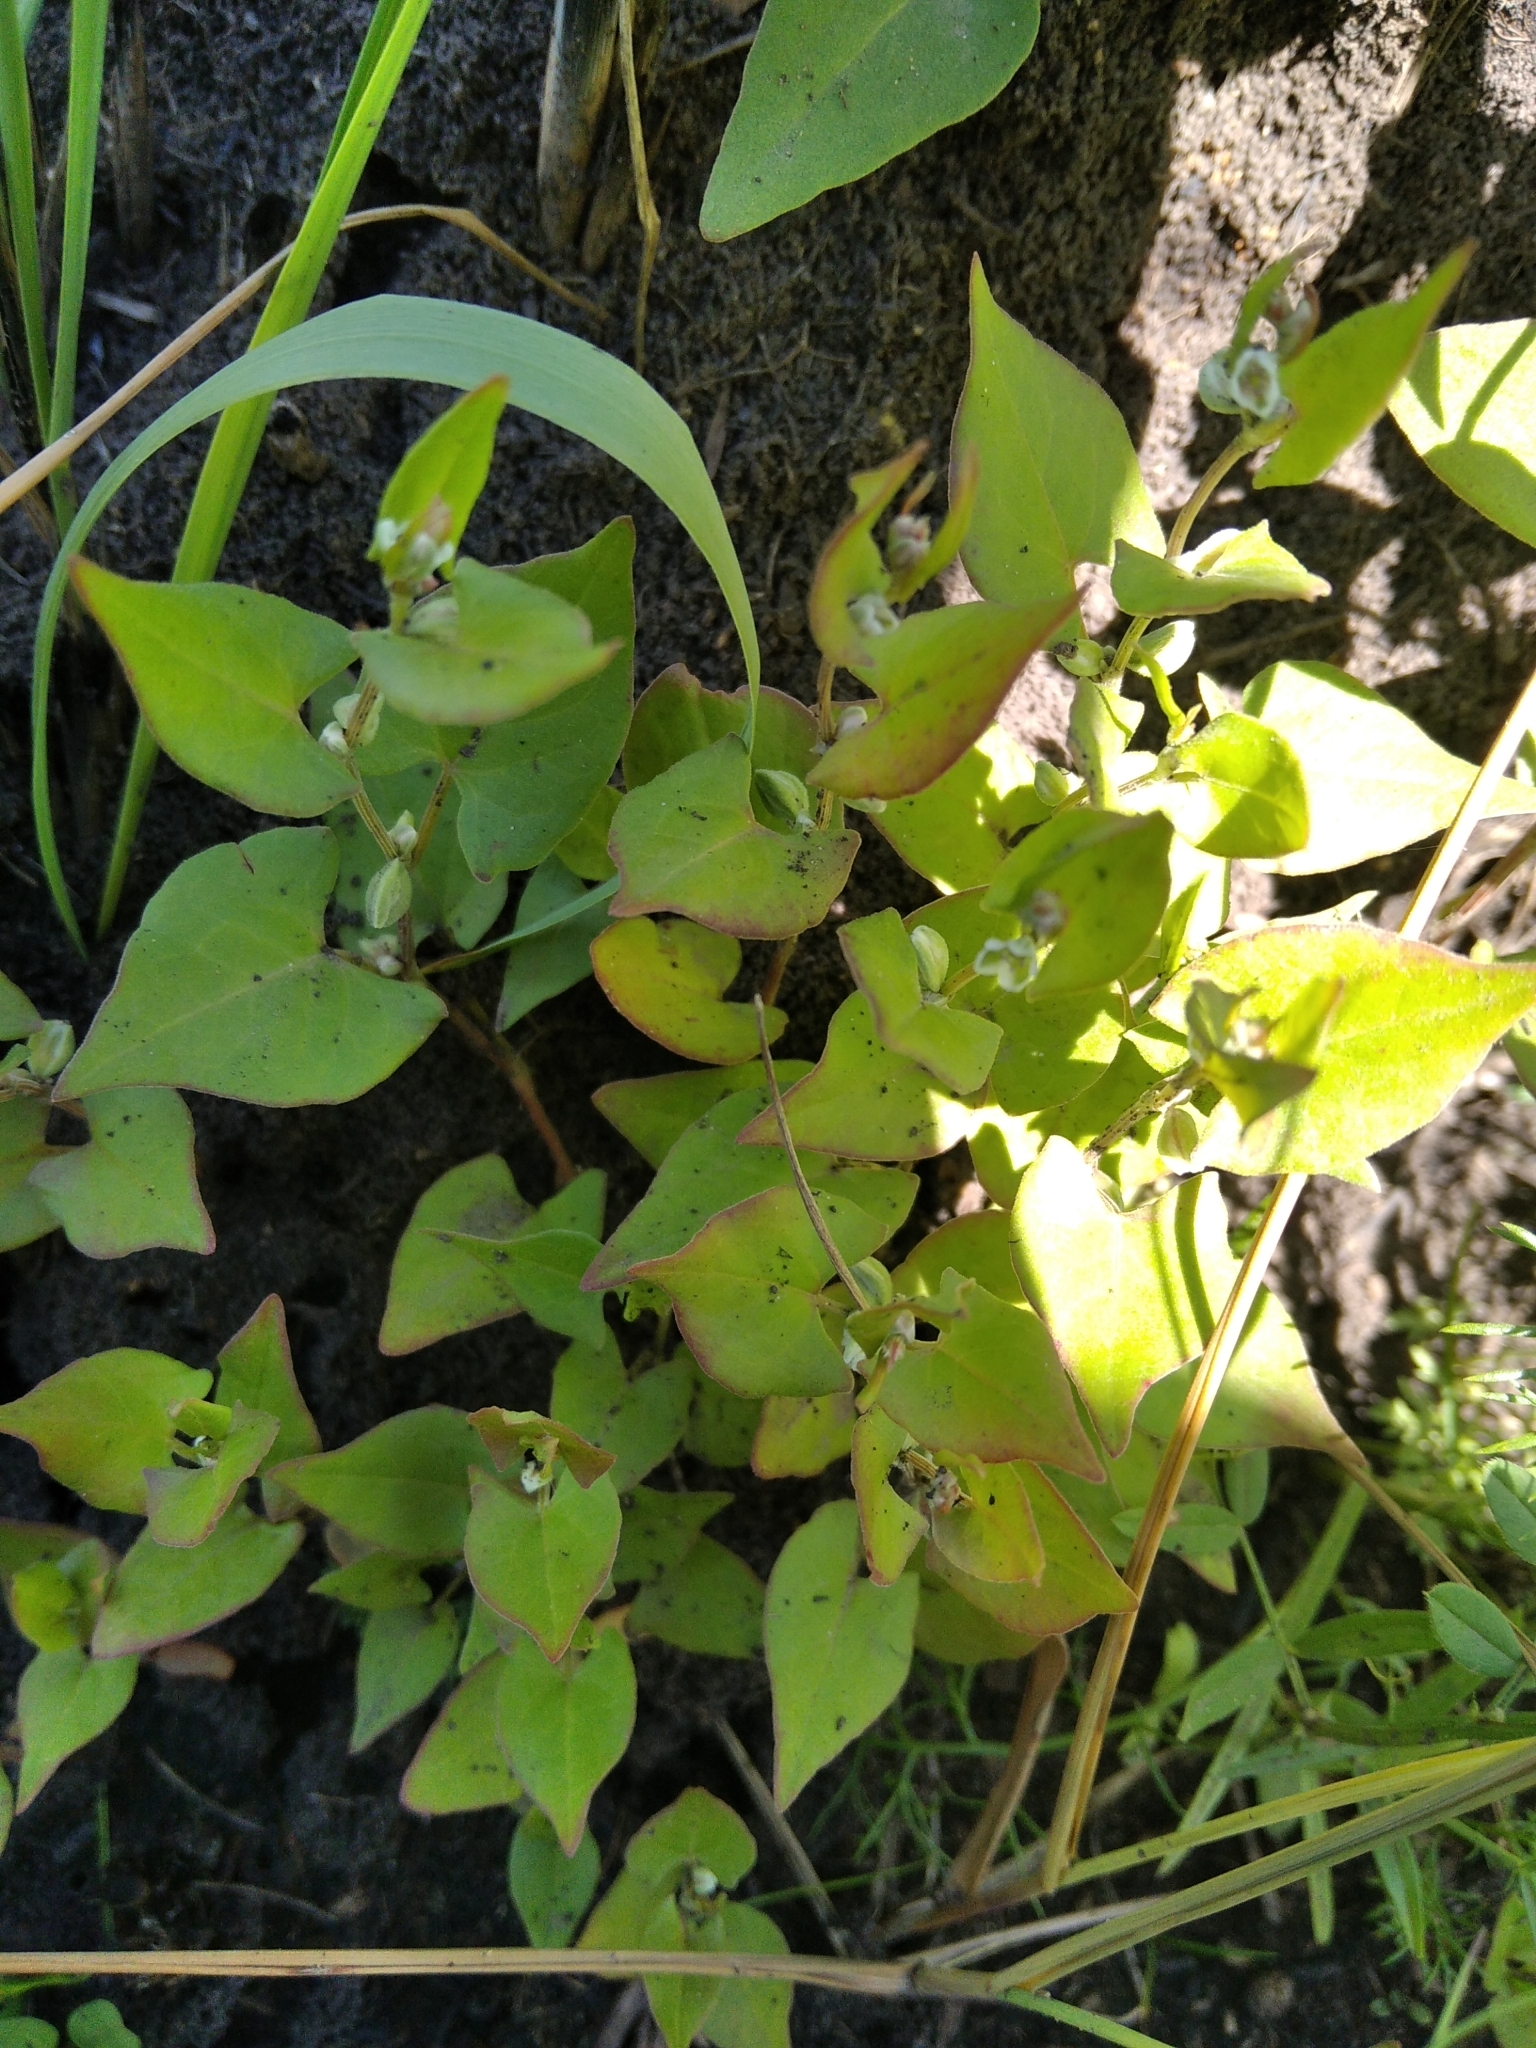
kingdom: Plantae
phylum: Tracheophyta
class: Magnoliopsida
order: Caryophyllales
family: Polygonaceae
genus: Fallopia
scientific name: Fallopia convolvulus
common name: Black bindweed
